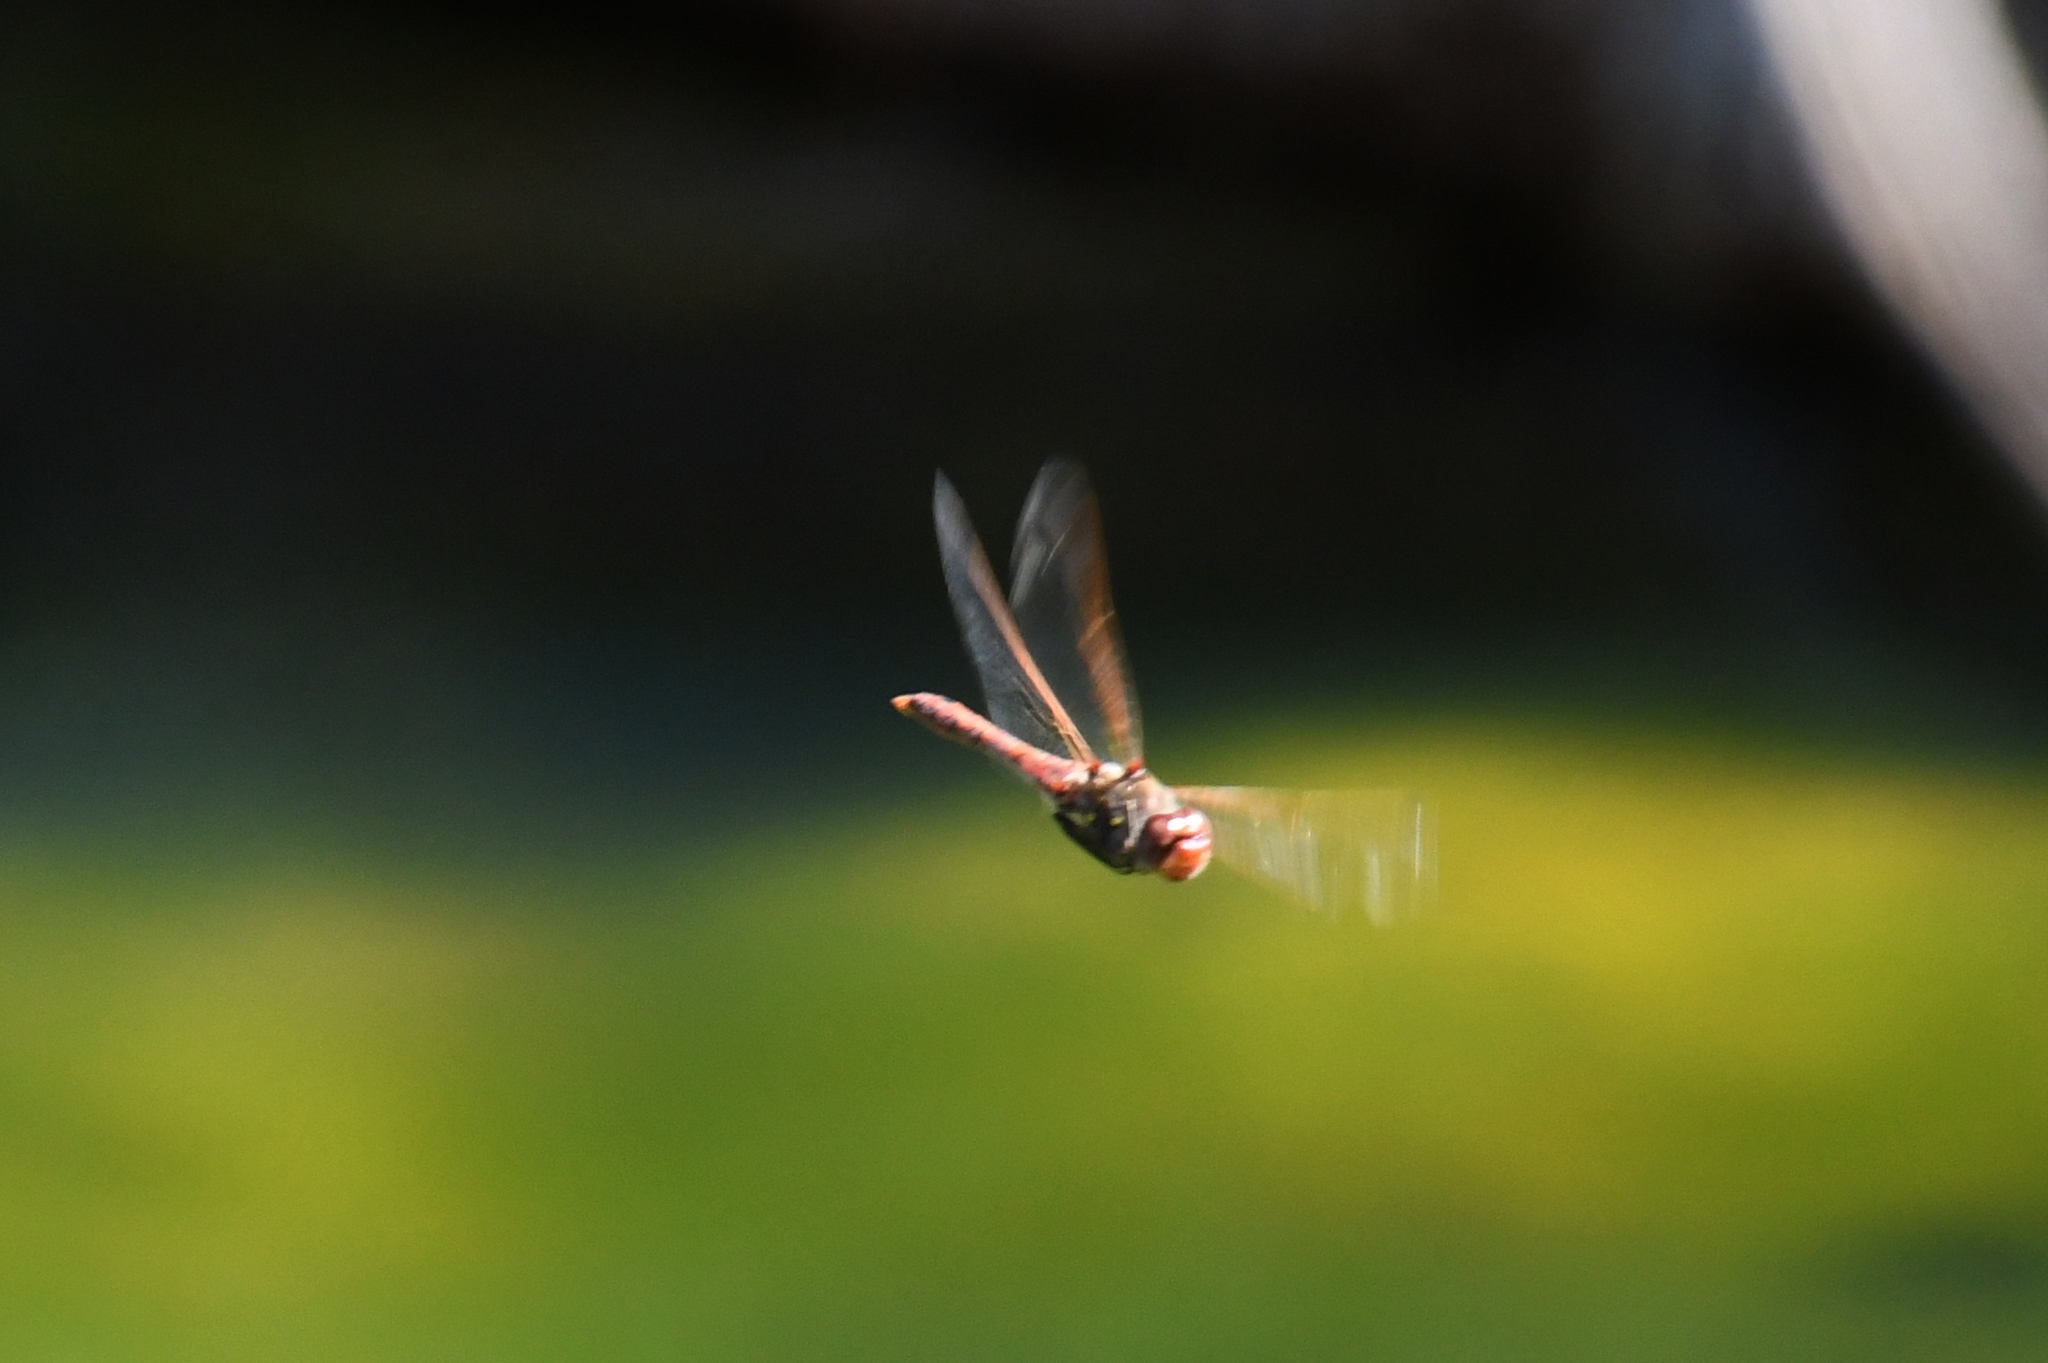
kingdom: Animalia
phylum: Arthropoda
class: Insecta
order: Odonata
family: Libellulidae
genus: Sympetrum
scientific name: Sympetrum corruptum
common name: Variegated meadowhawk
